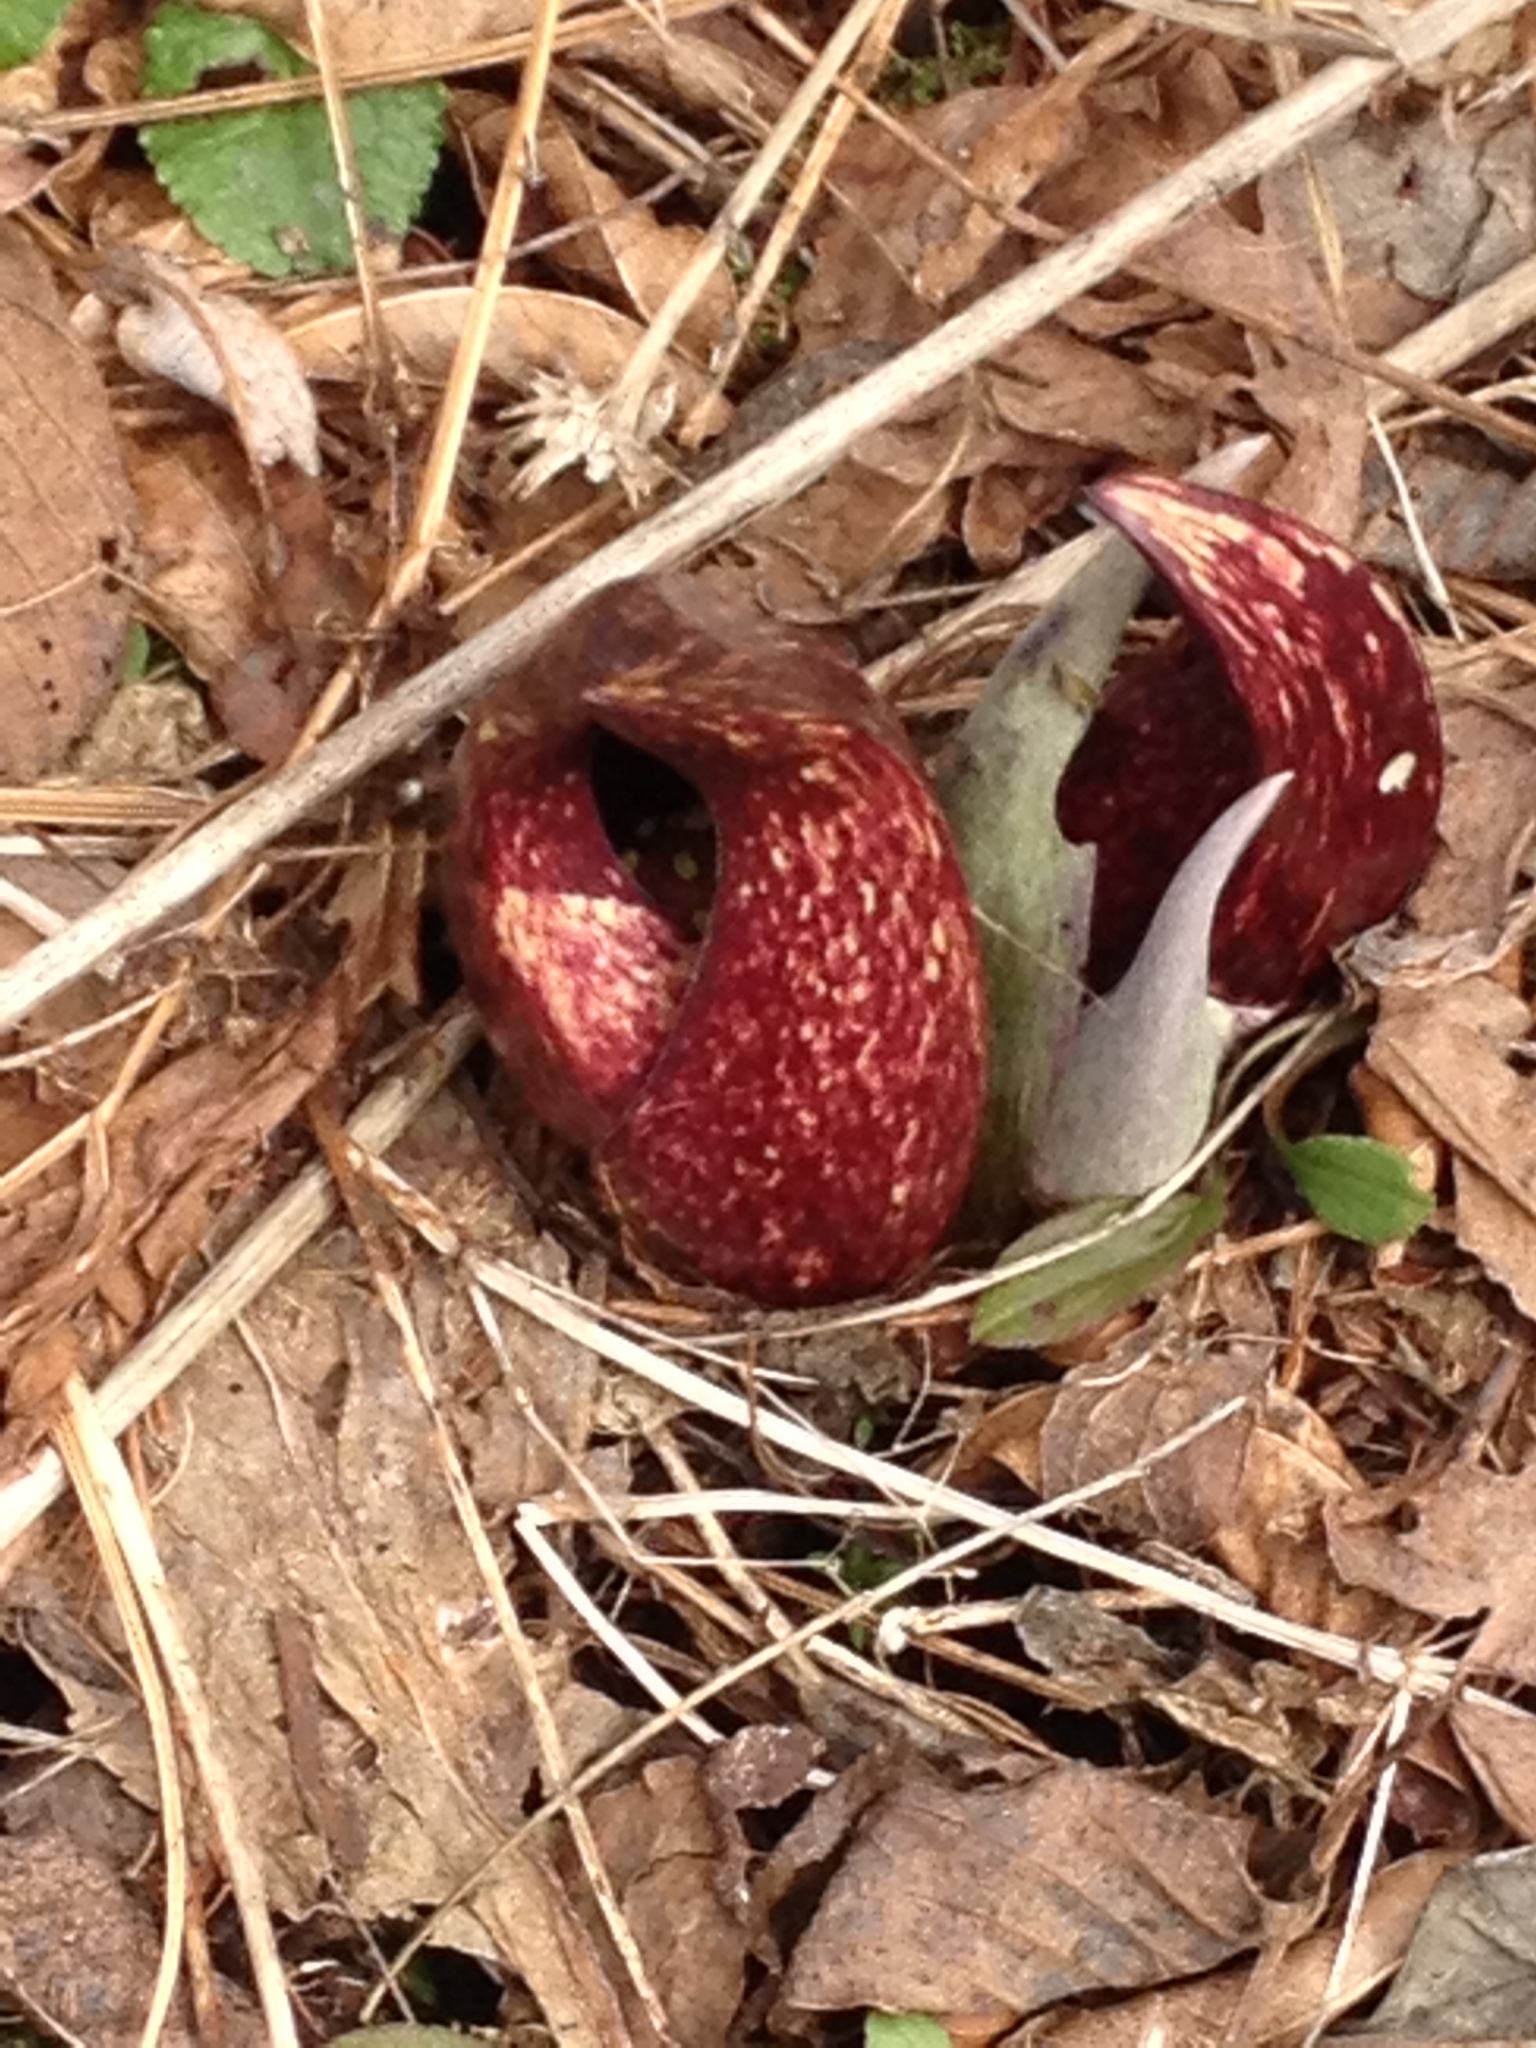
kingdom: Plantae
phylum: Tracheophyta
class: Liliopsida
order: Alismatales
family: Araceae
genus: Symplocarpus
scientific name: Symplocarpus foetidus
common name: Eastern skunk cabbage
